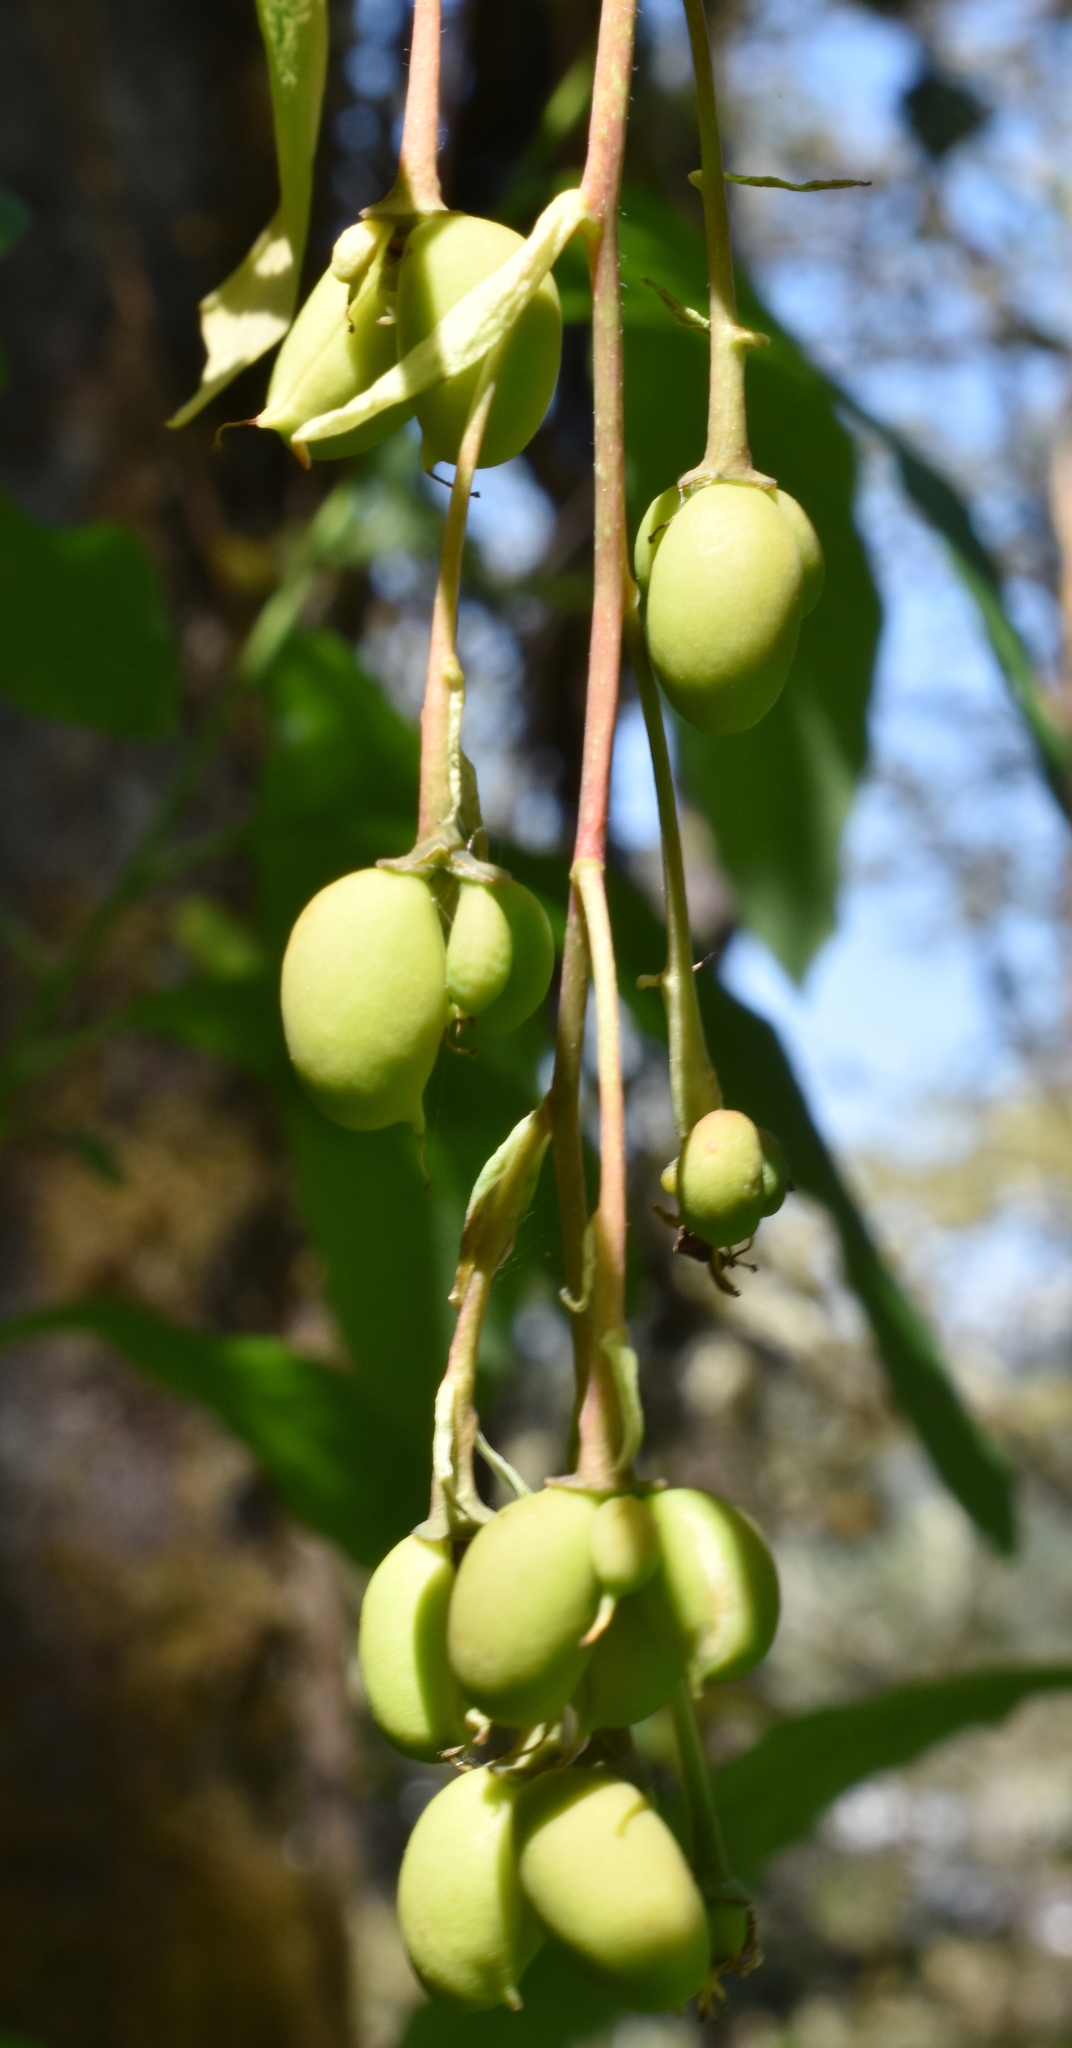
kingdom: Plantae
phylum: Tracheophyta
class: Magnoliopsida
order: Rosales
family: Rosaceae
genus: Oemleria
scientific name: Oemleria cerasiformis
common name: Osoberry
